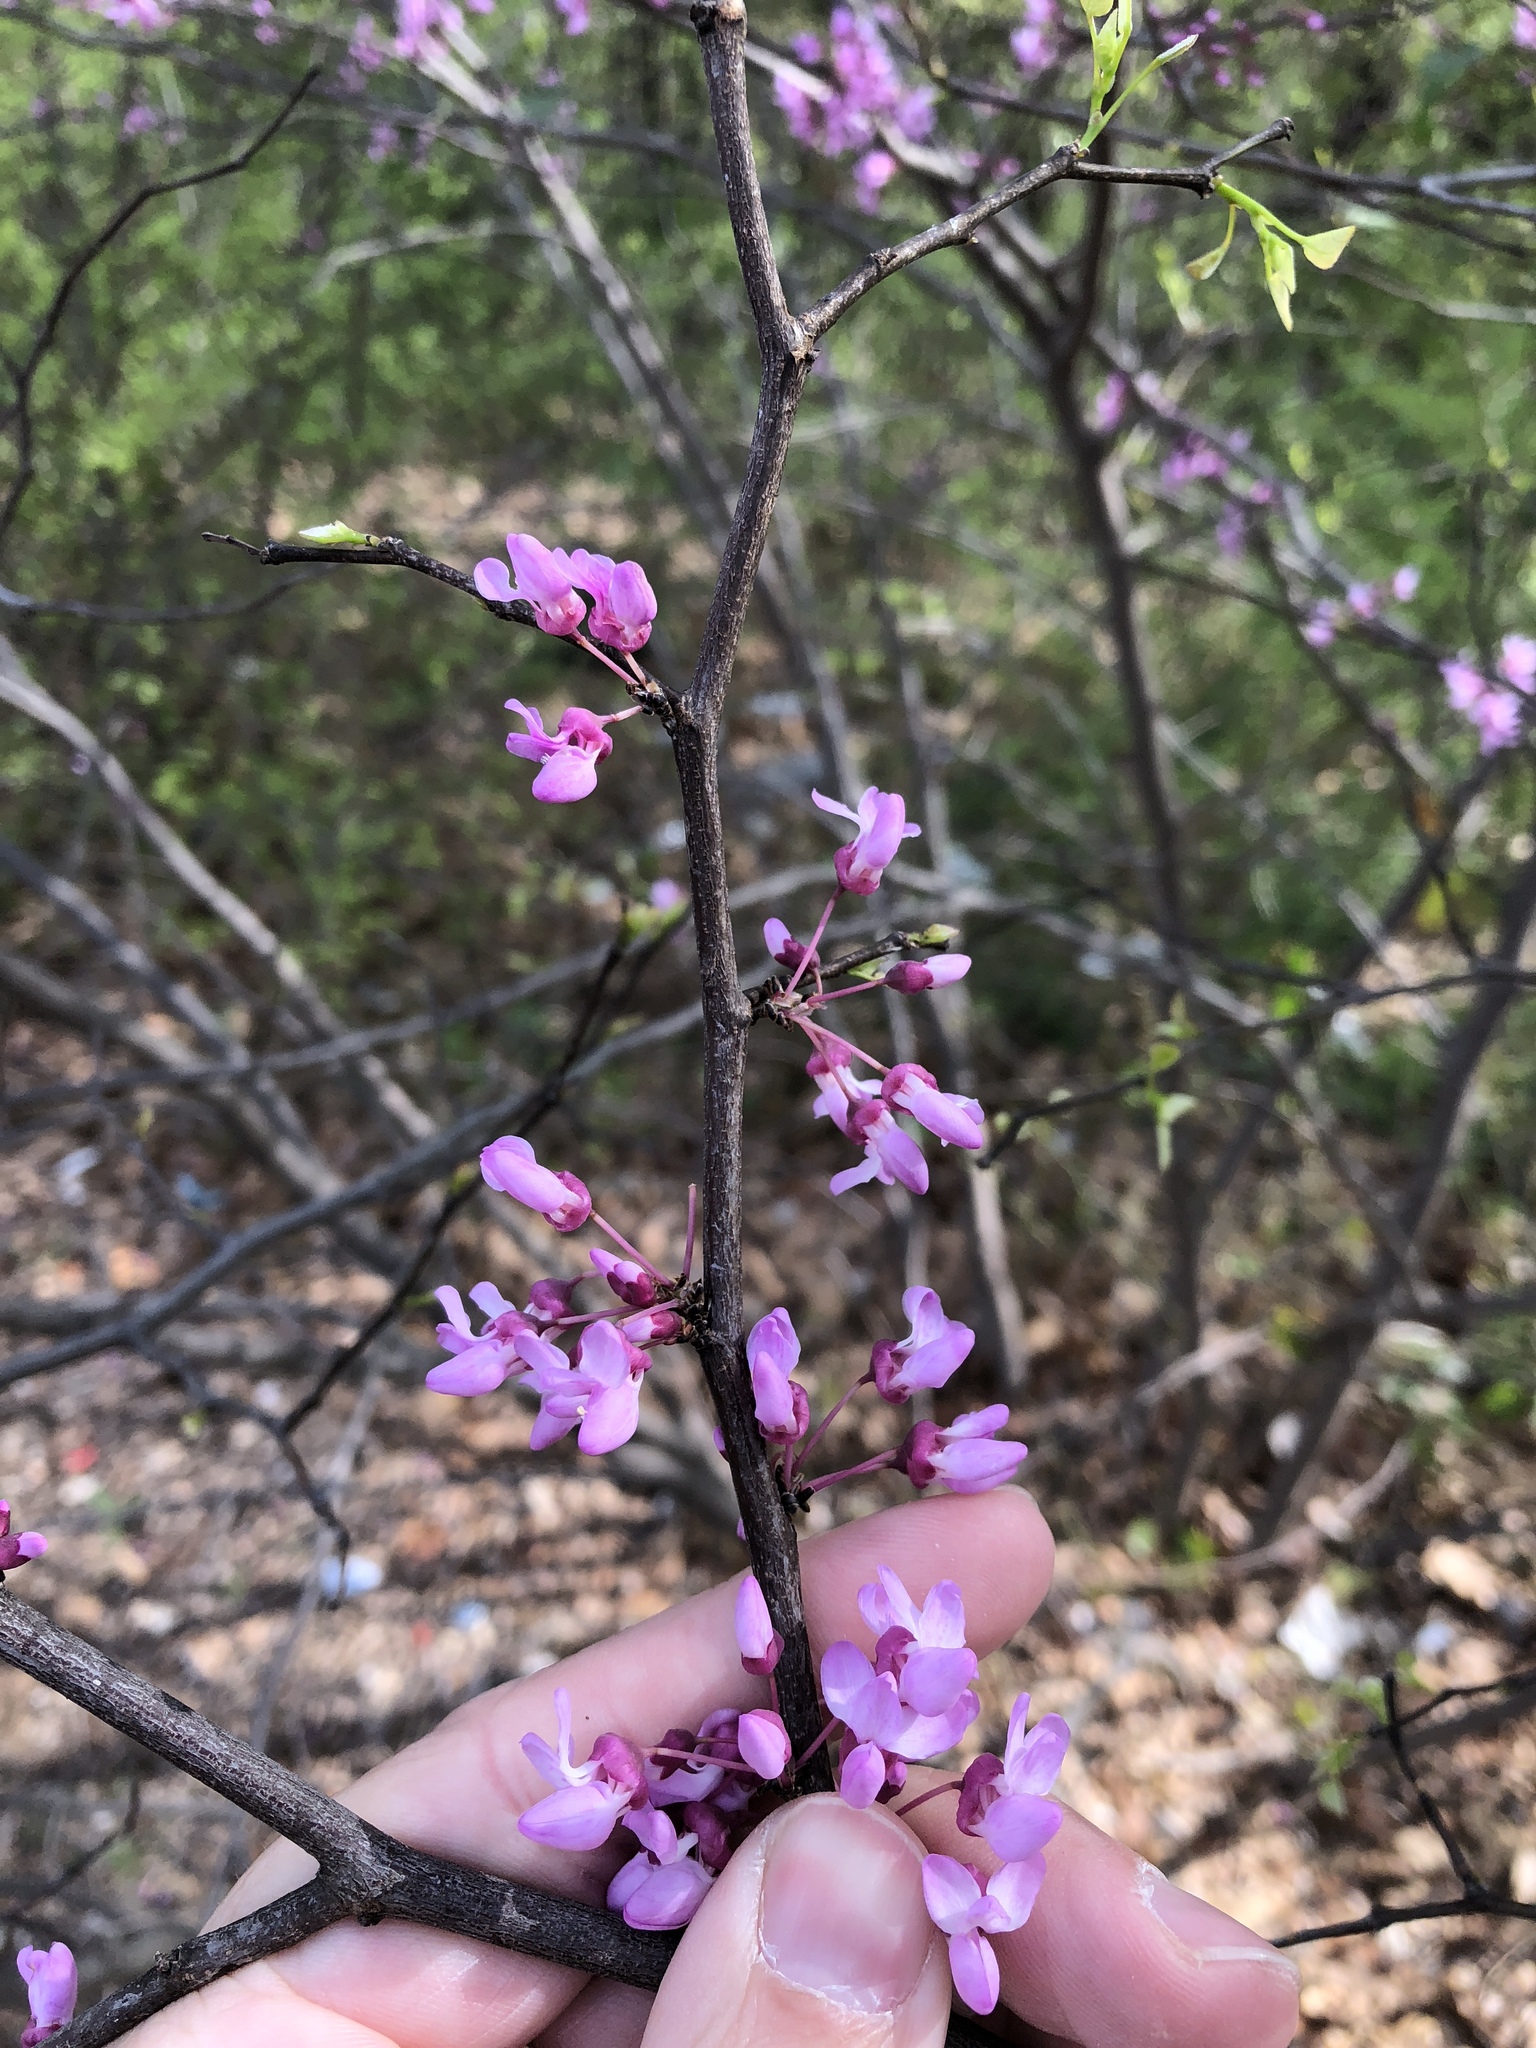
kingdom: Plantae
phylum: Tracheophyta
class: Magnoliopsida
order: Fabales
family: Fabaceae
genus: Cercis
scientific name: Cercis canadensis
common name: Eastern redbud
